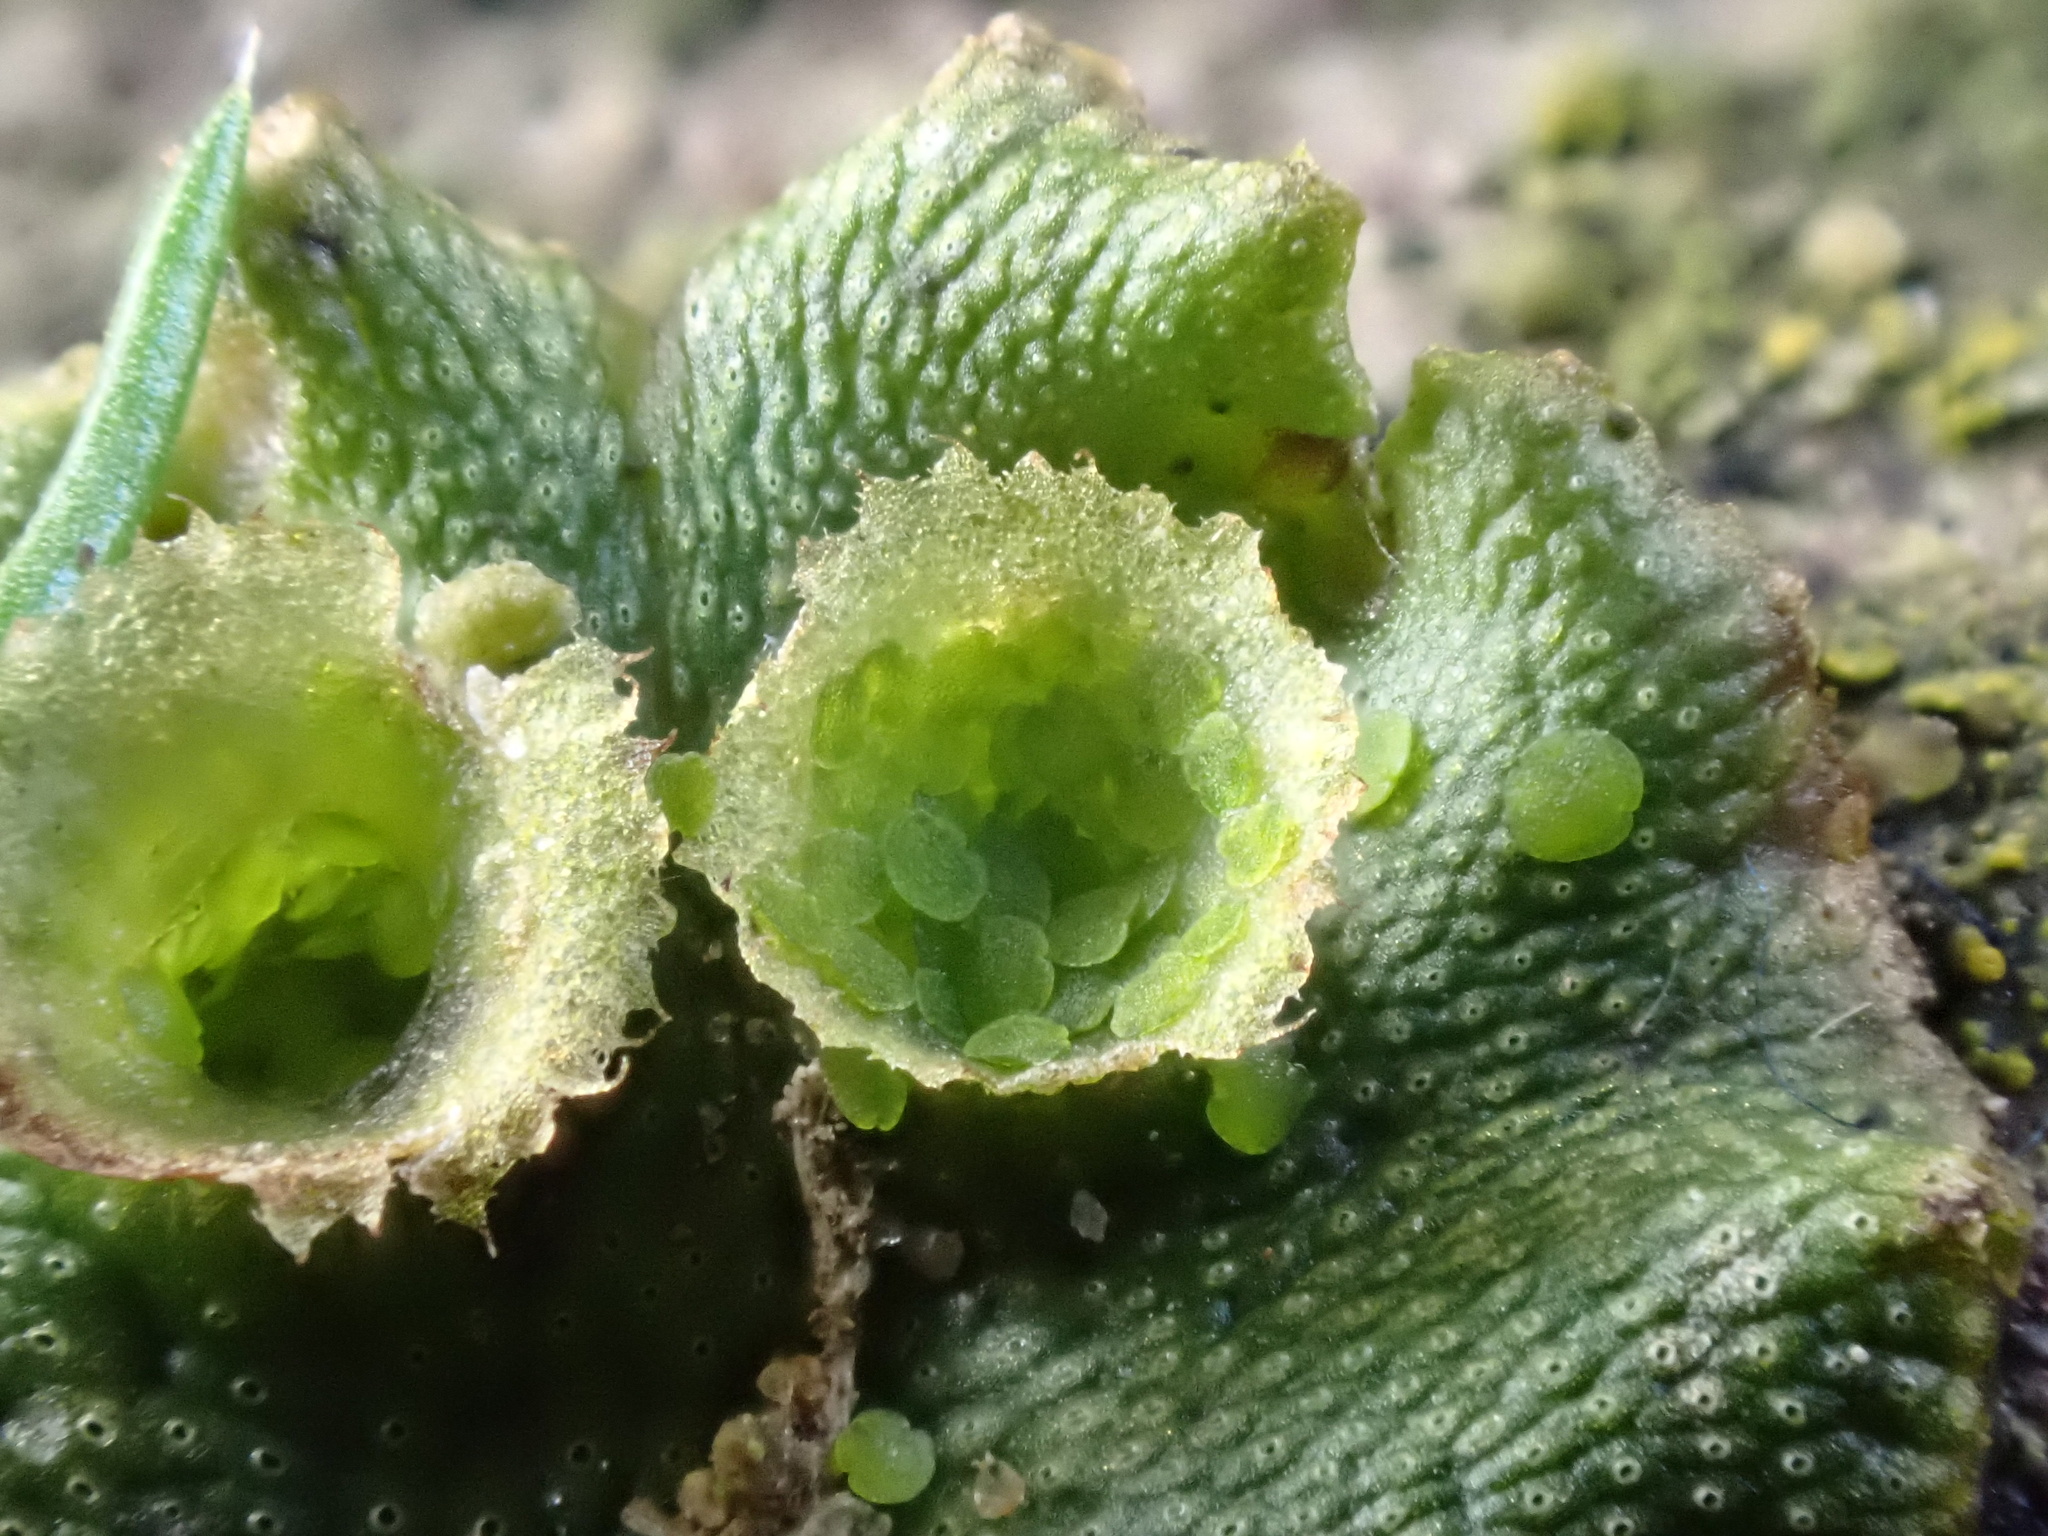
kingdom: Plantae
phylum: Marchantiophyta
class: Marchantiopsida
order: Marchantiales
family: Marchantiaceae
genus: Marchantia
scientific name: Marchantia polymorpha
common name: Common liverwort
